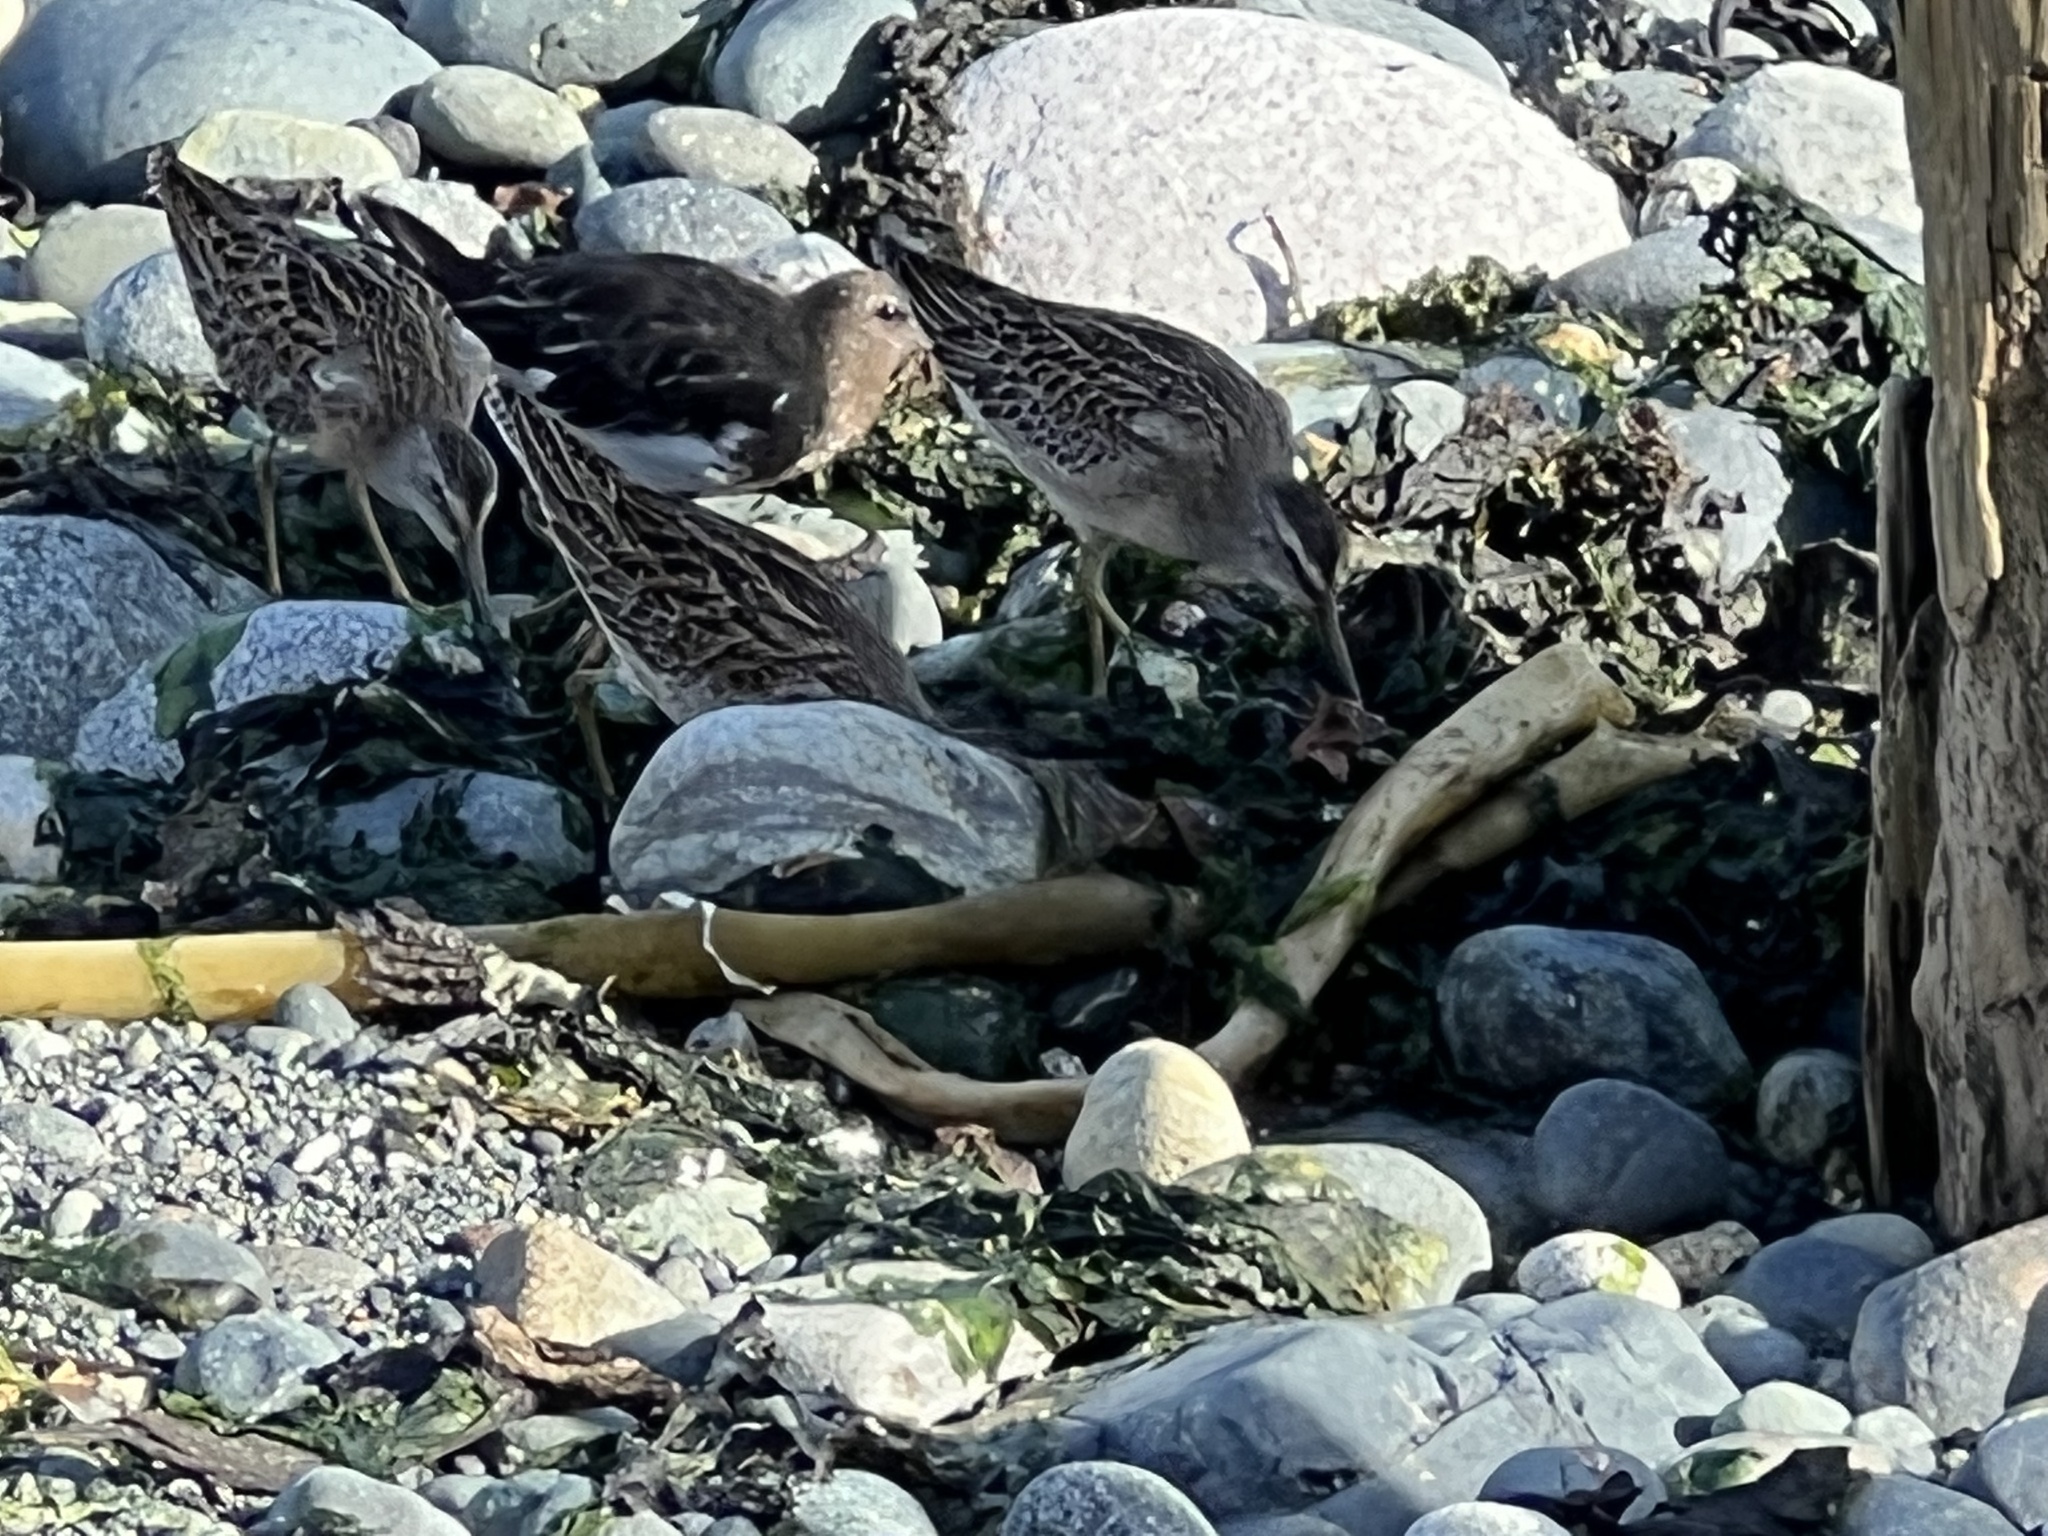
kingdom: Animalia
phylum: Chordata
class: Aves
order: Charadriiformes
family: Scolopacidae
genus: Limnodromus
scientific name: Limnodromus griseus
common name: Short-billed dowitcher
